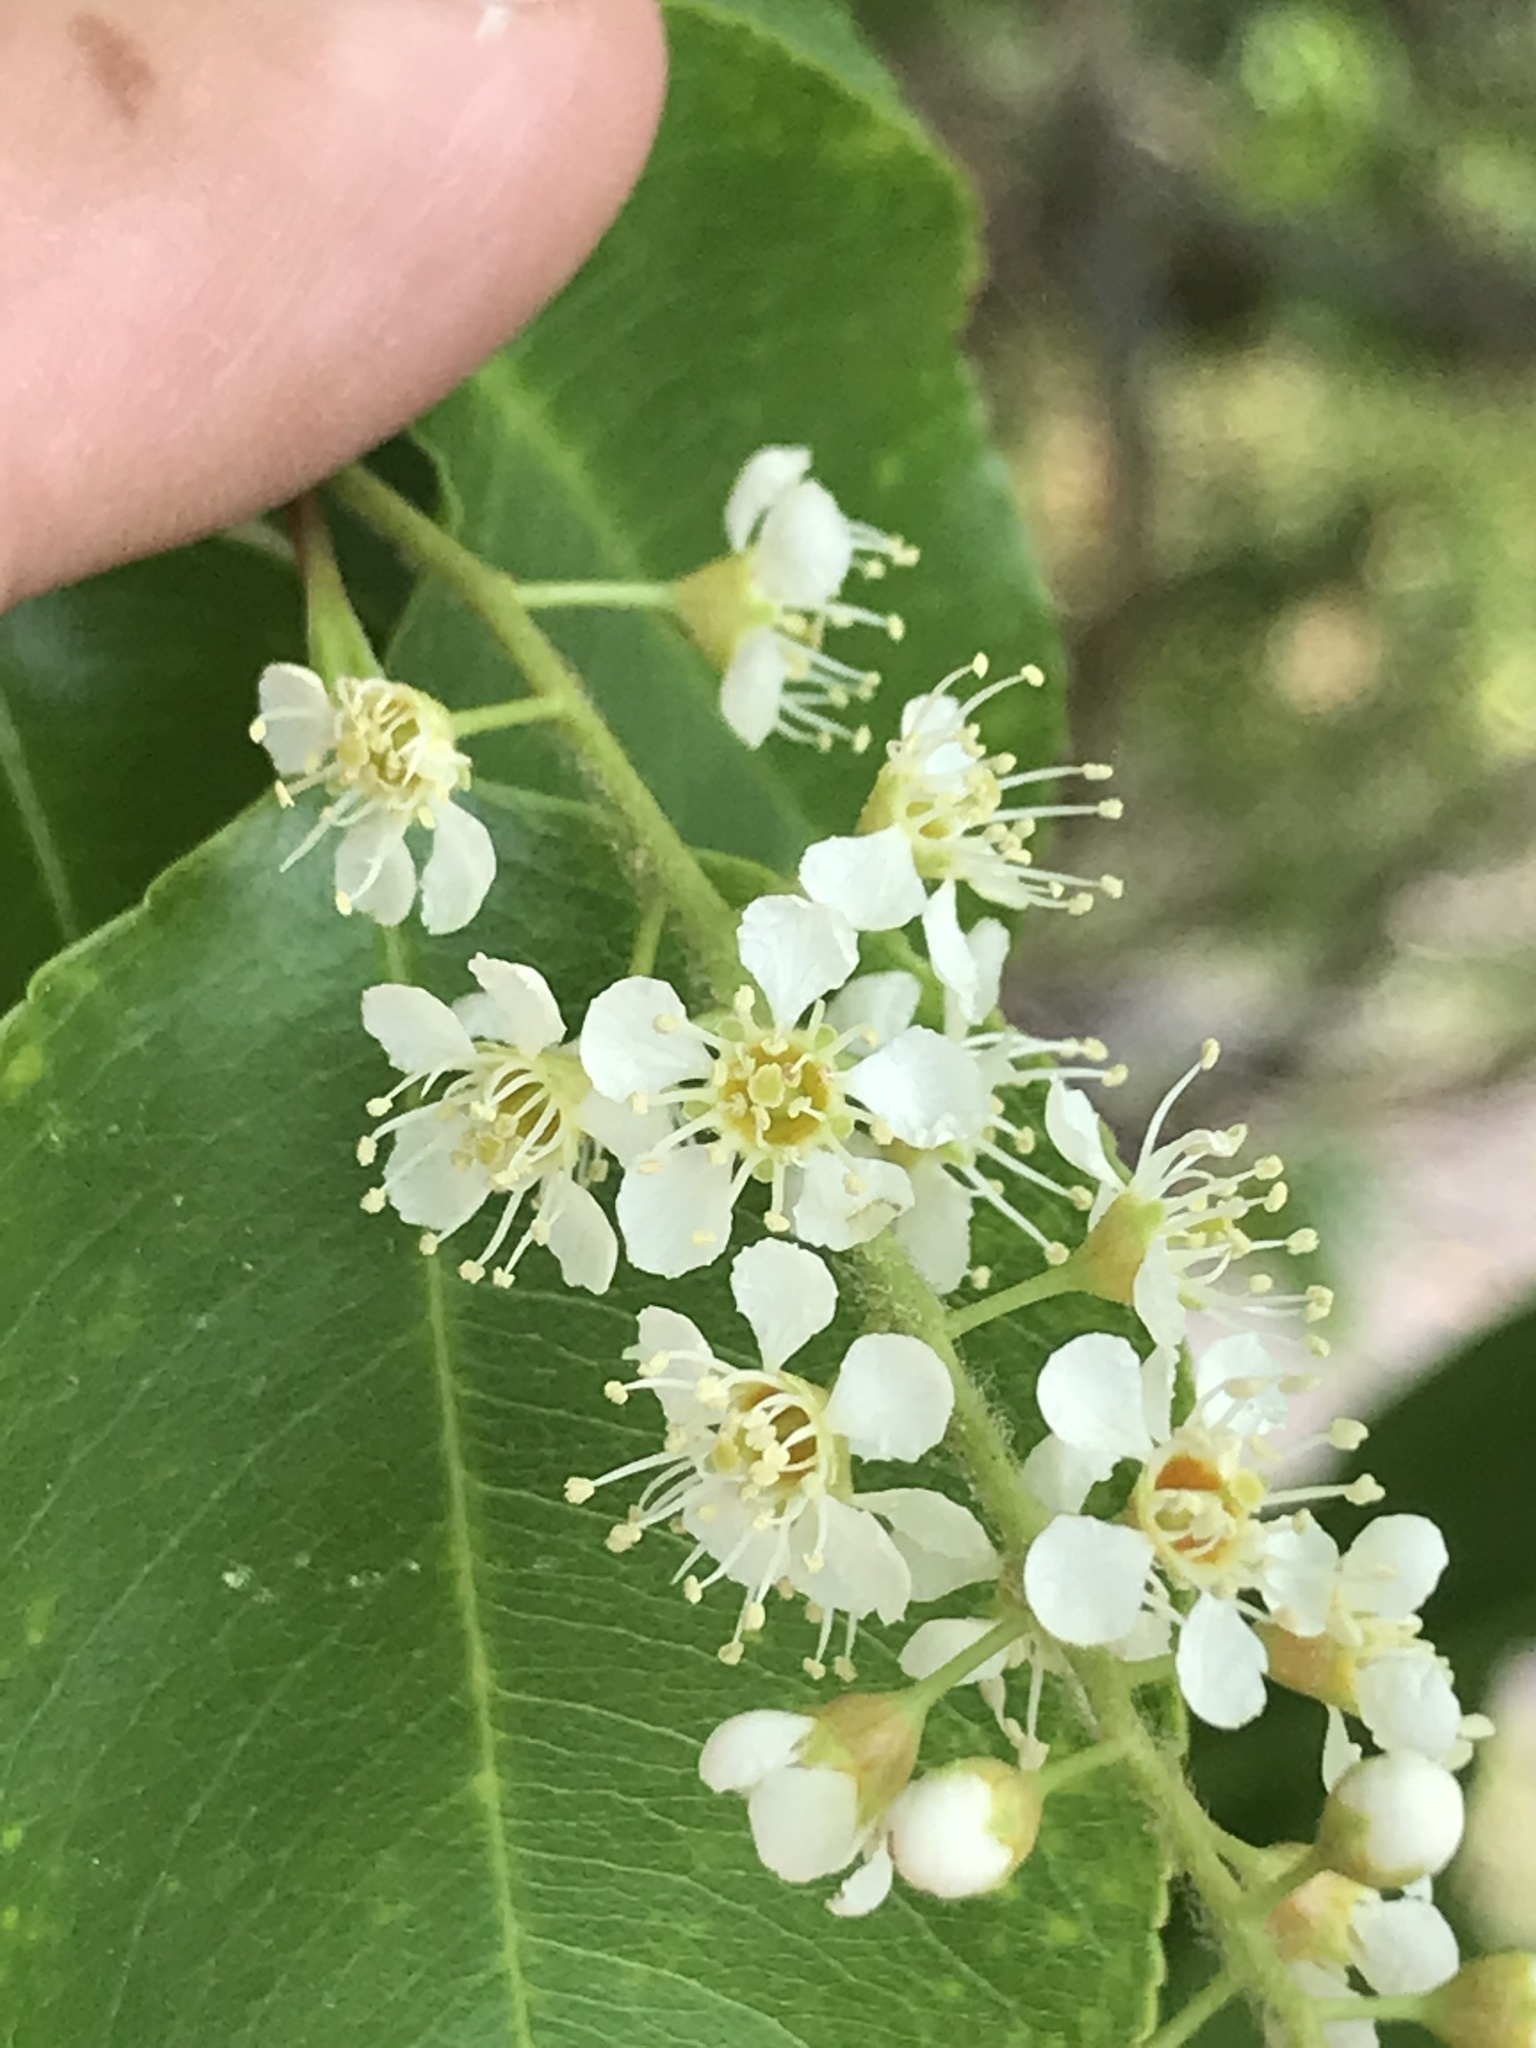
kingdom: Plantae
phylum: Tracheophyta
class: Magnoliopsida
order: Rosales
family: Rosaceae
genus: Prunus
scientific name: Prunus serotina
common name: Black cherry
